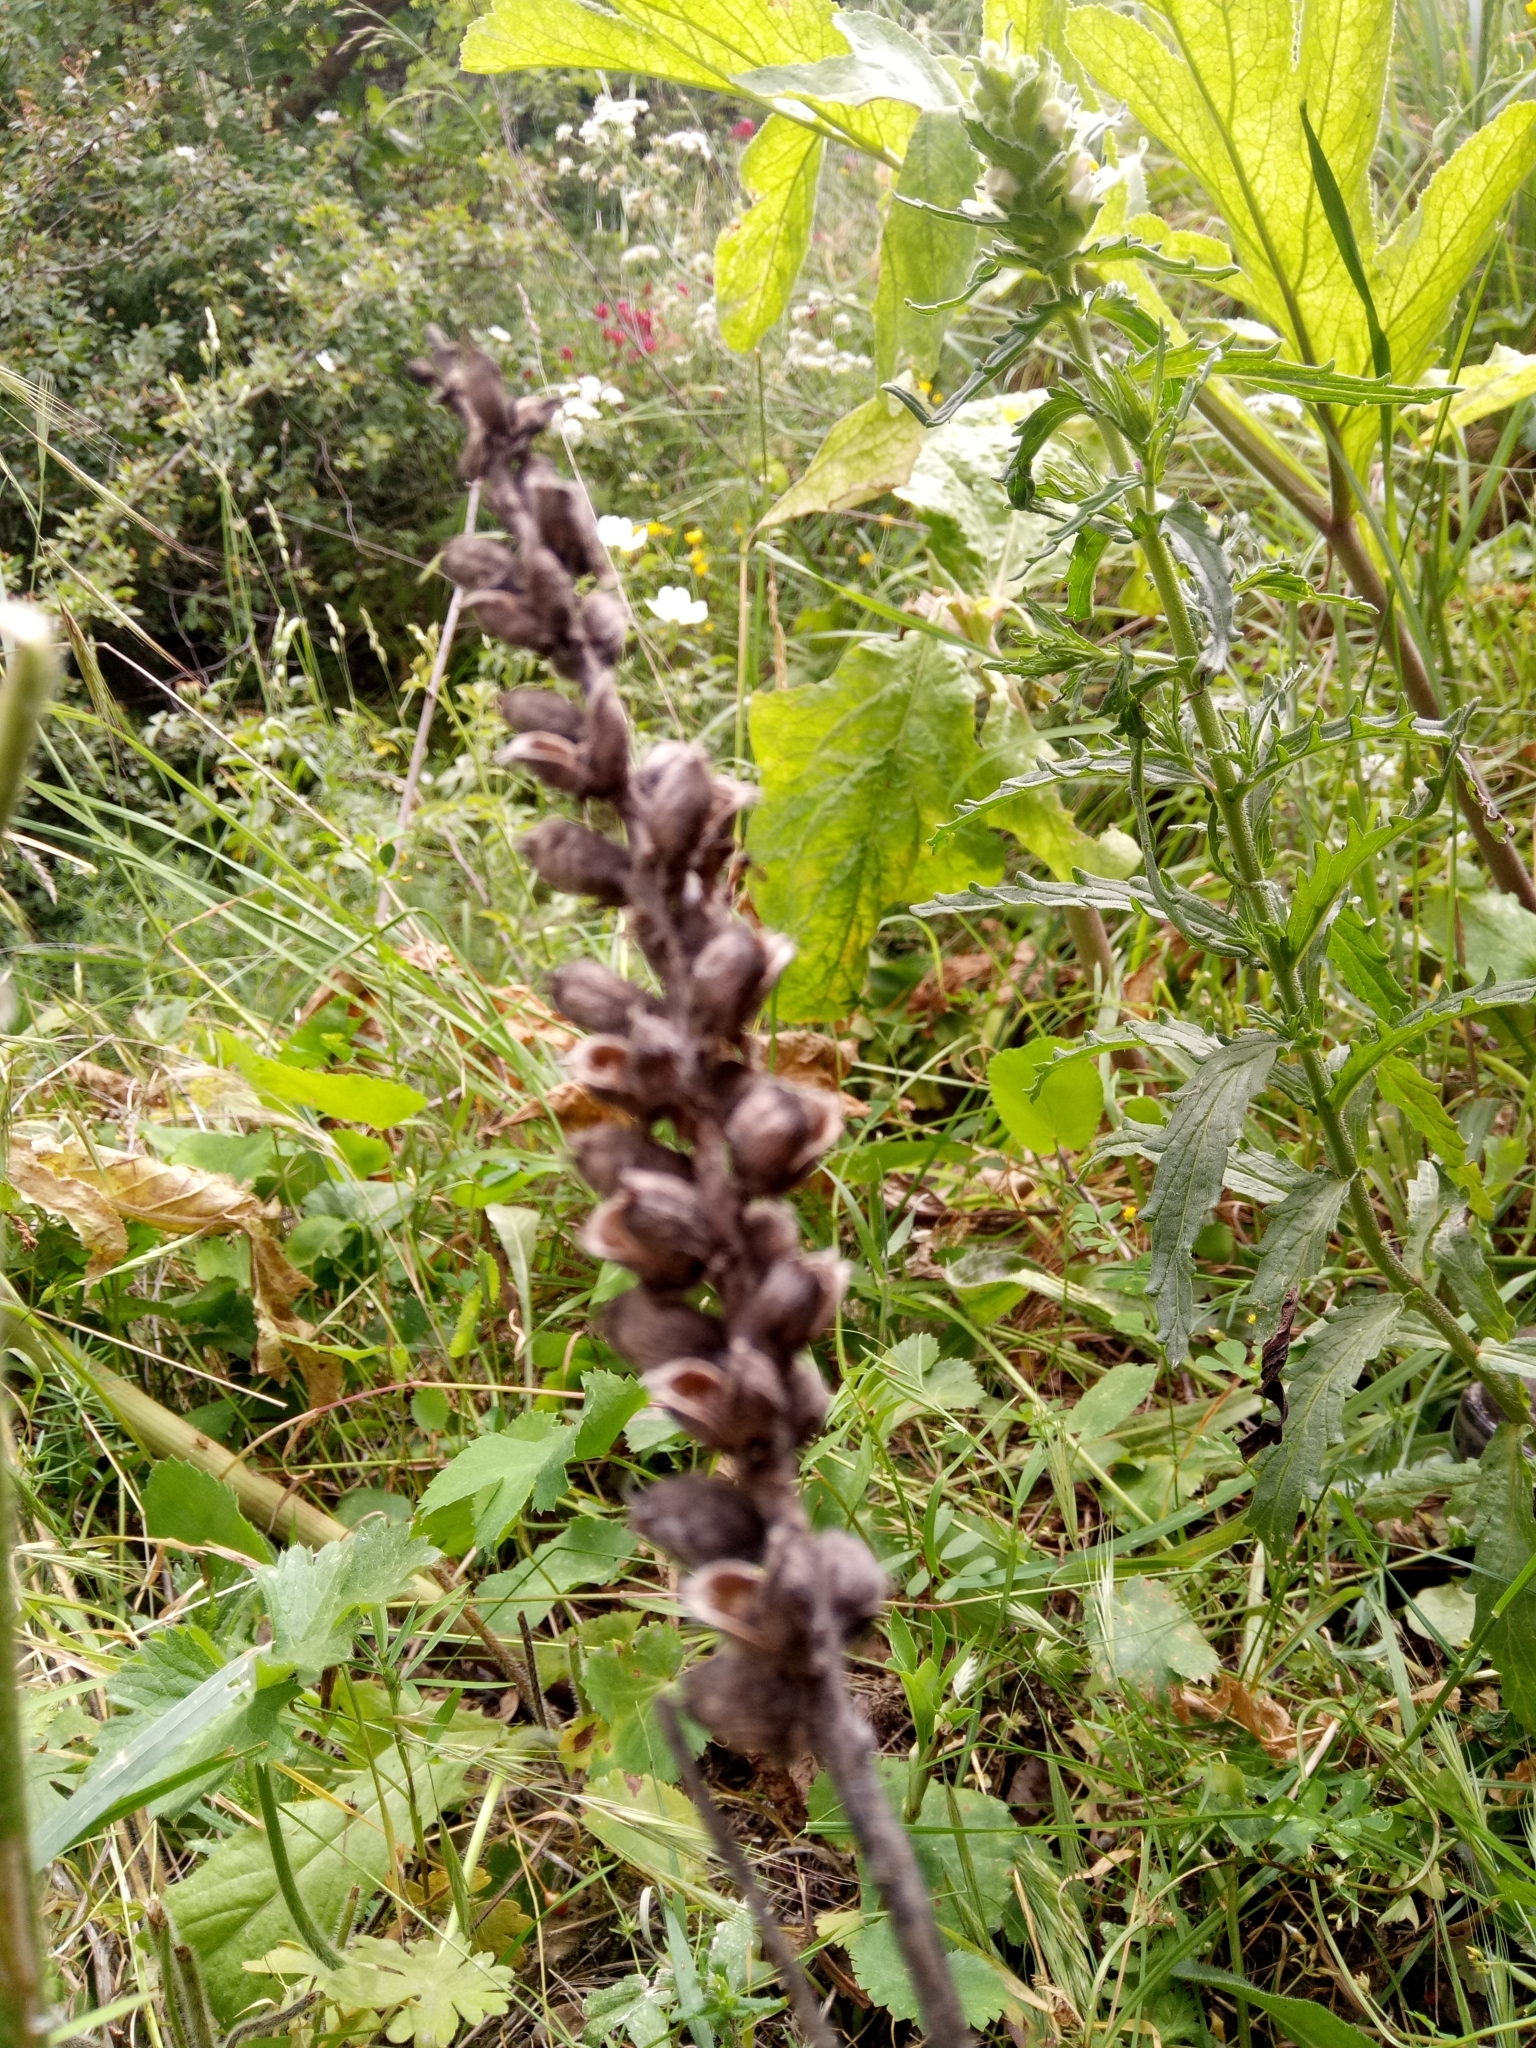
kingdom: Plantae
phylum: Tracheophyta
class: Magnoliopsida
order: Lamiales
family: Orobanchaceae
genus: Bellardia
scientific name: Bellardia trixago
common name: Mediterranean lineseed
